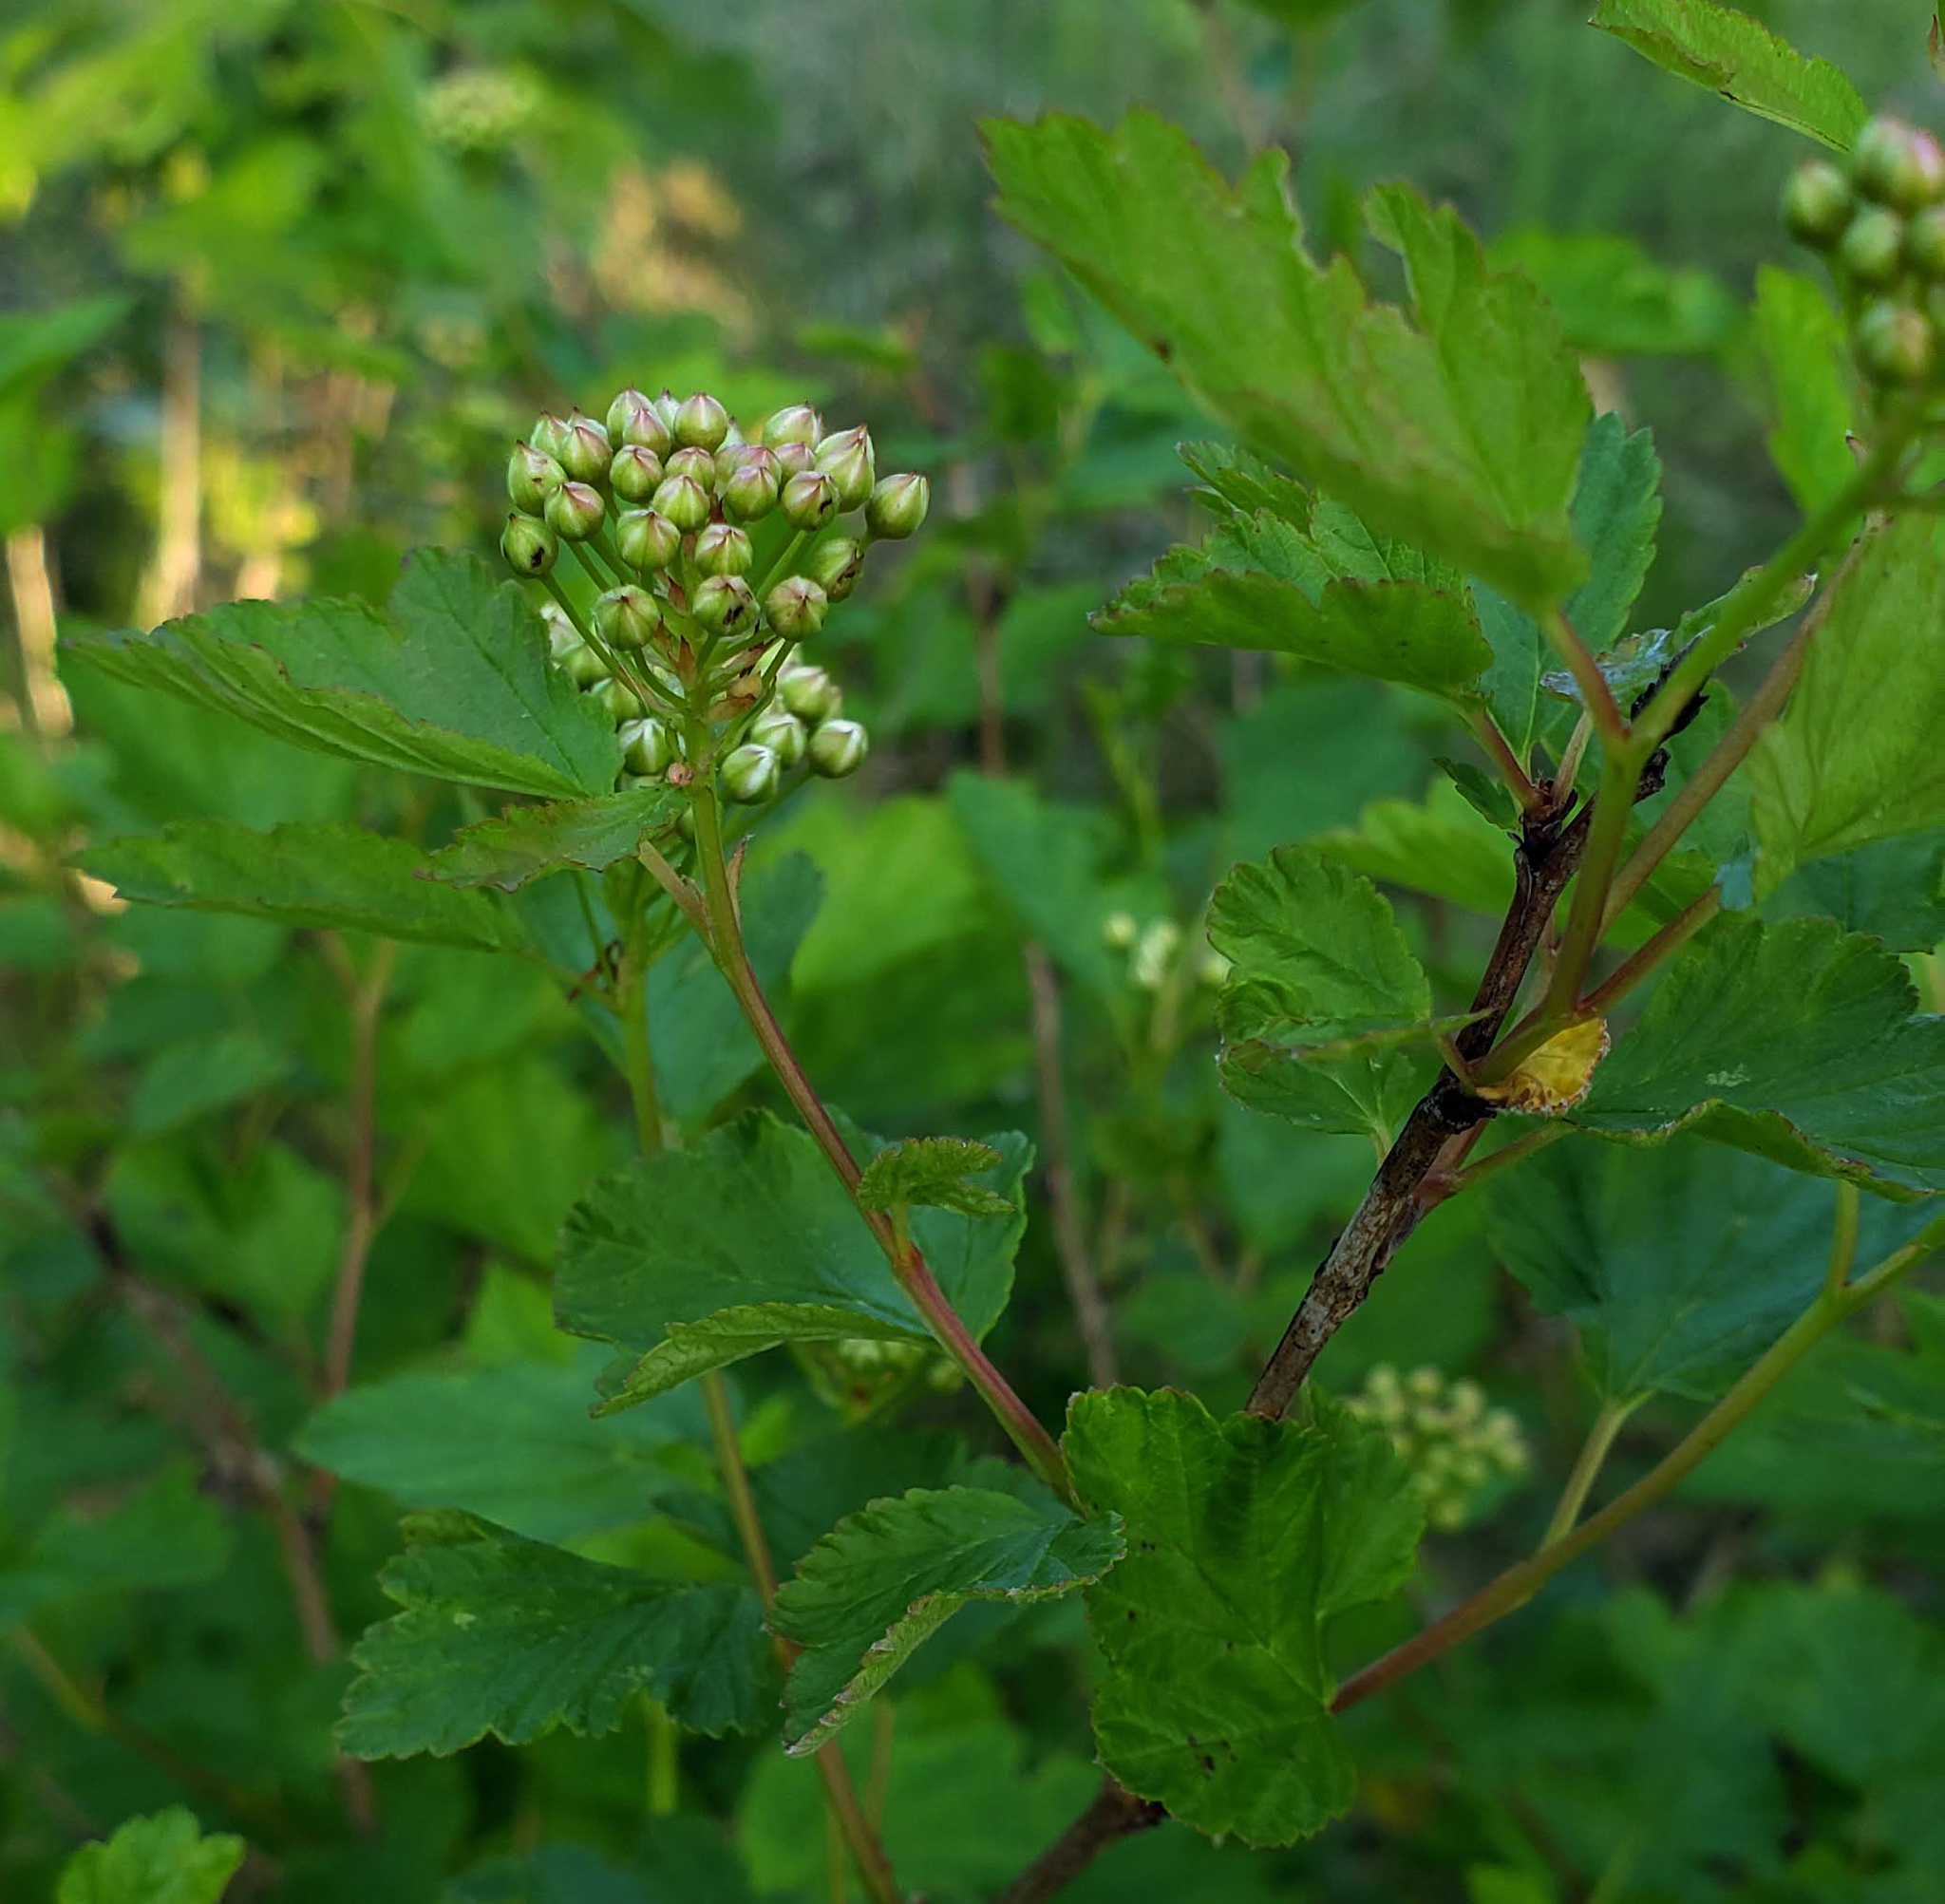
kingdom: Plantae
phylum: Tracheophyta
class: Magnoliopsida
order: Rosales
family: Rosaceae
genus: Physocarpus
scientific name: Physocarpus opulifolius
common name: Ninebark
